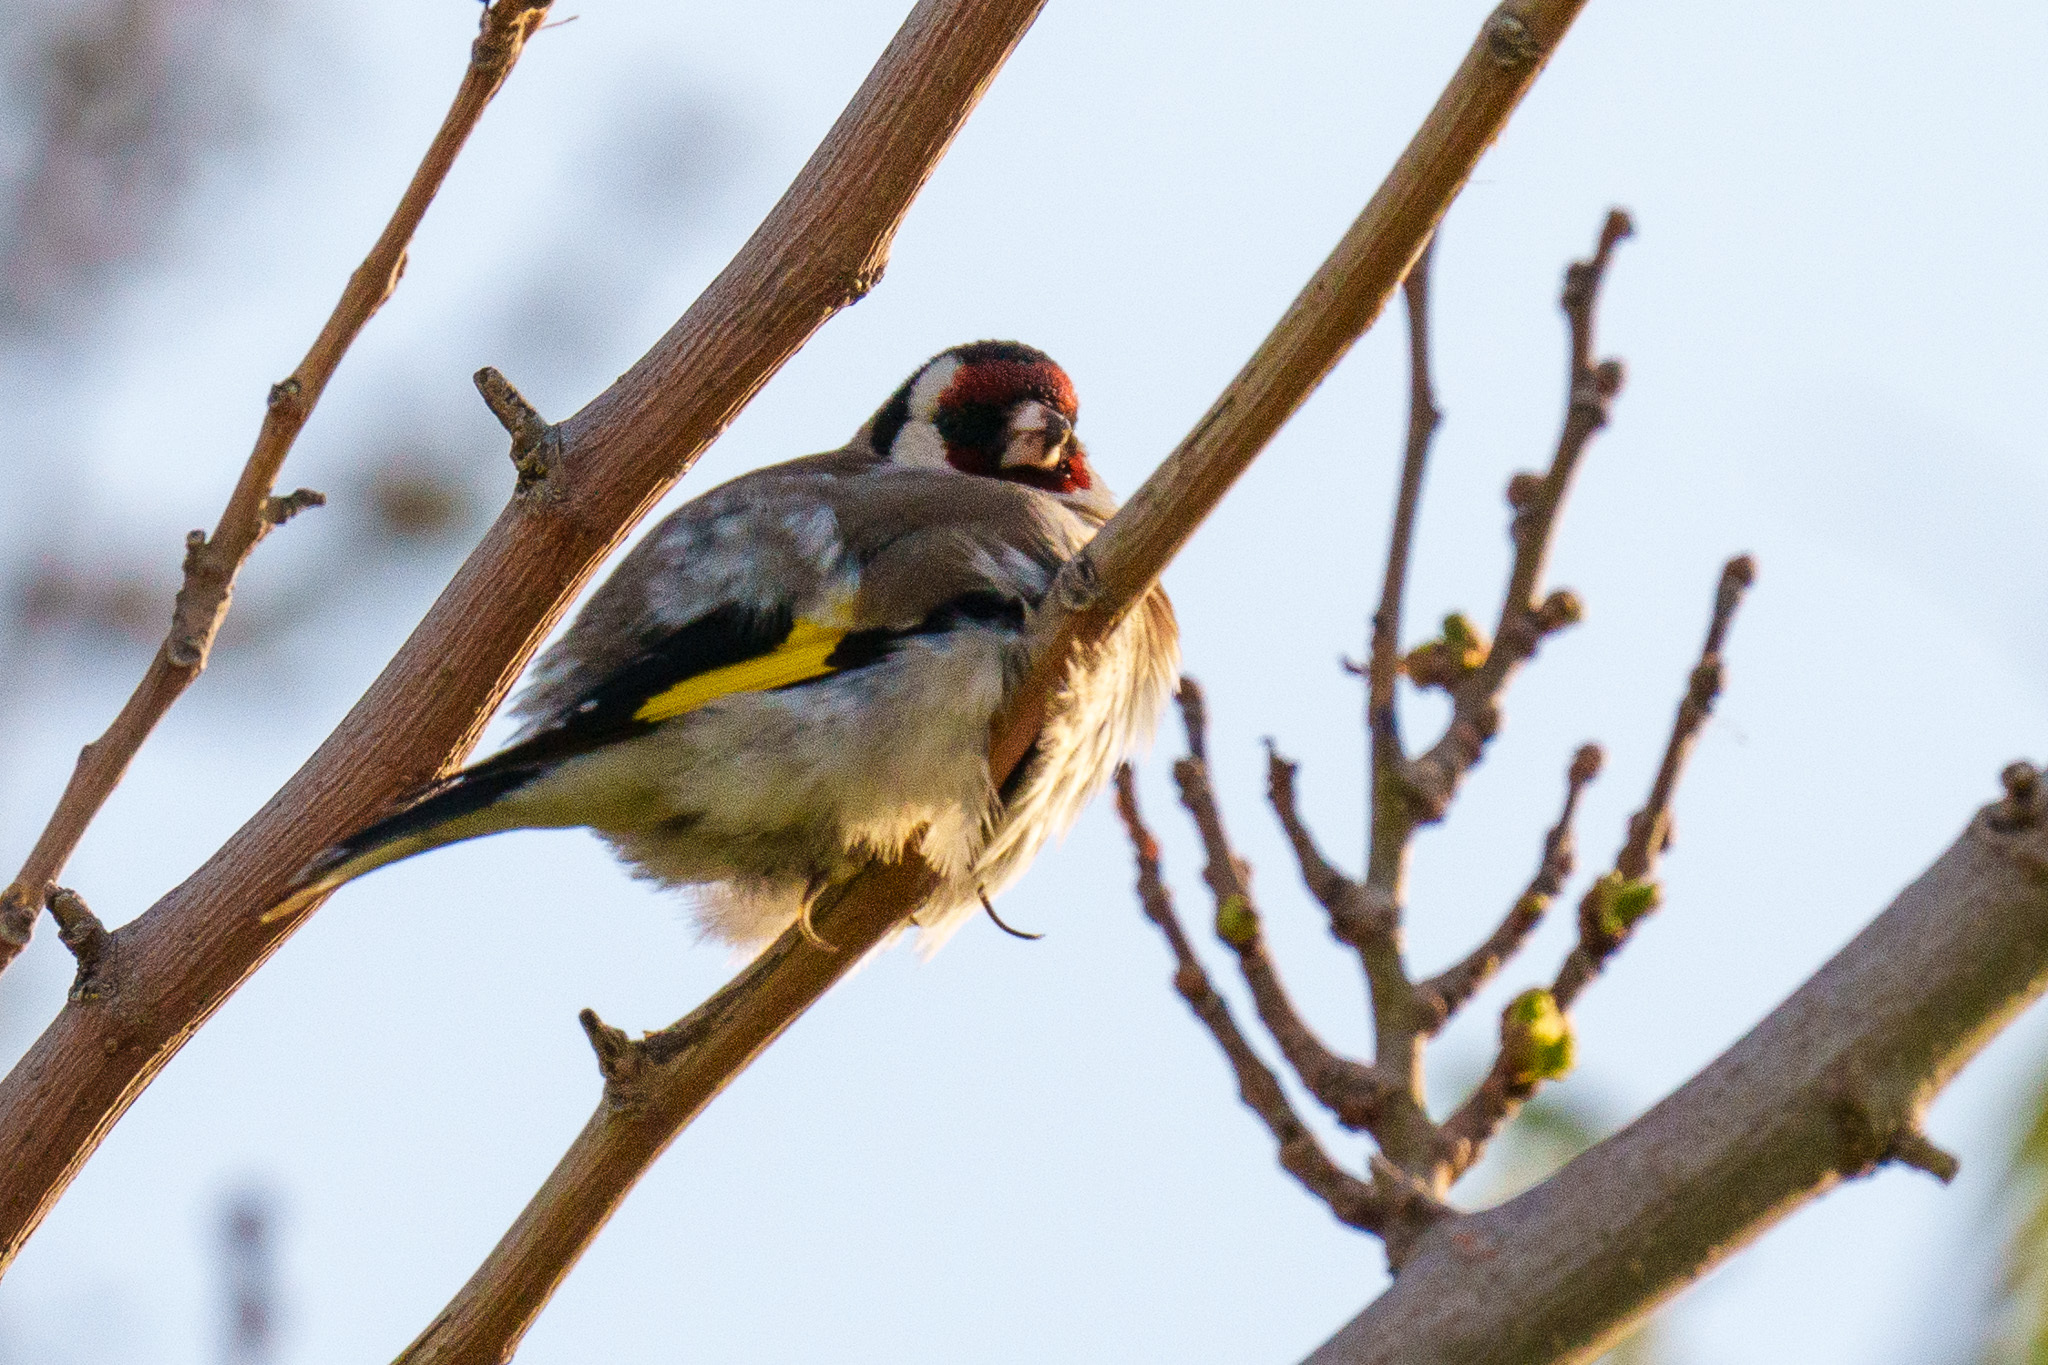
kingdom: Animalia
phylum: Chordata
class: Aves
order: Passeriformes
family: Fringillidae
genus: Carduelis
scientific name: Carduelis carduelis
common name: European goldfinch
